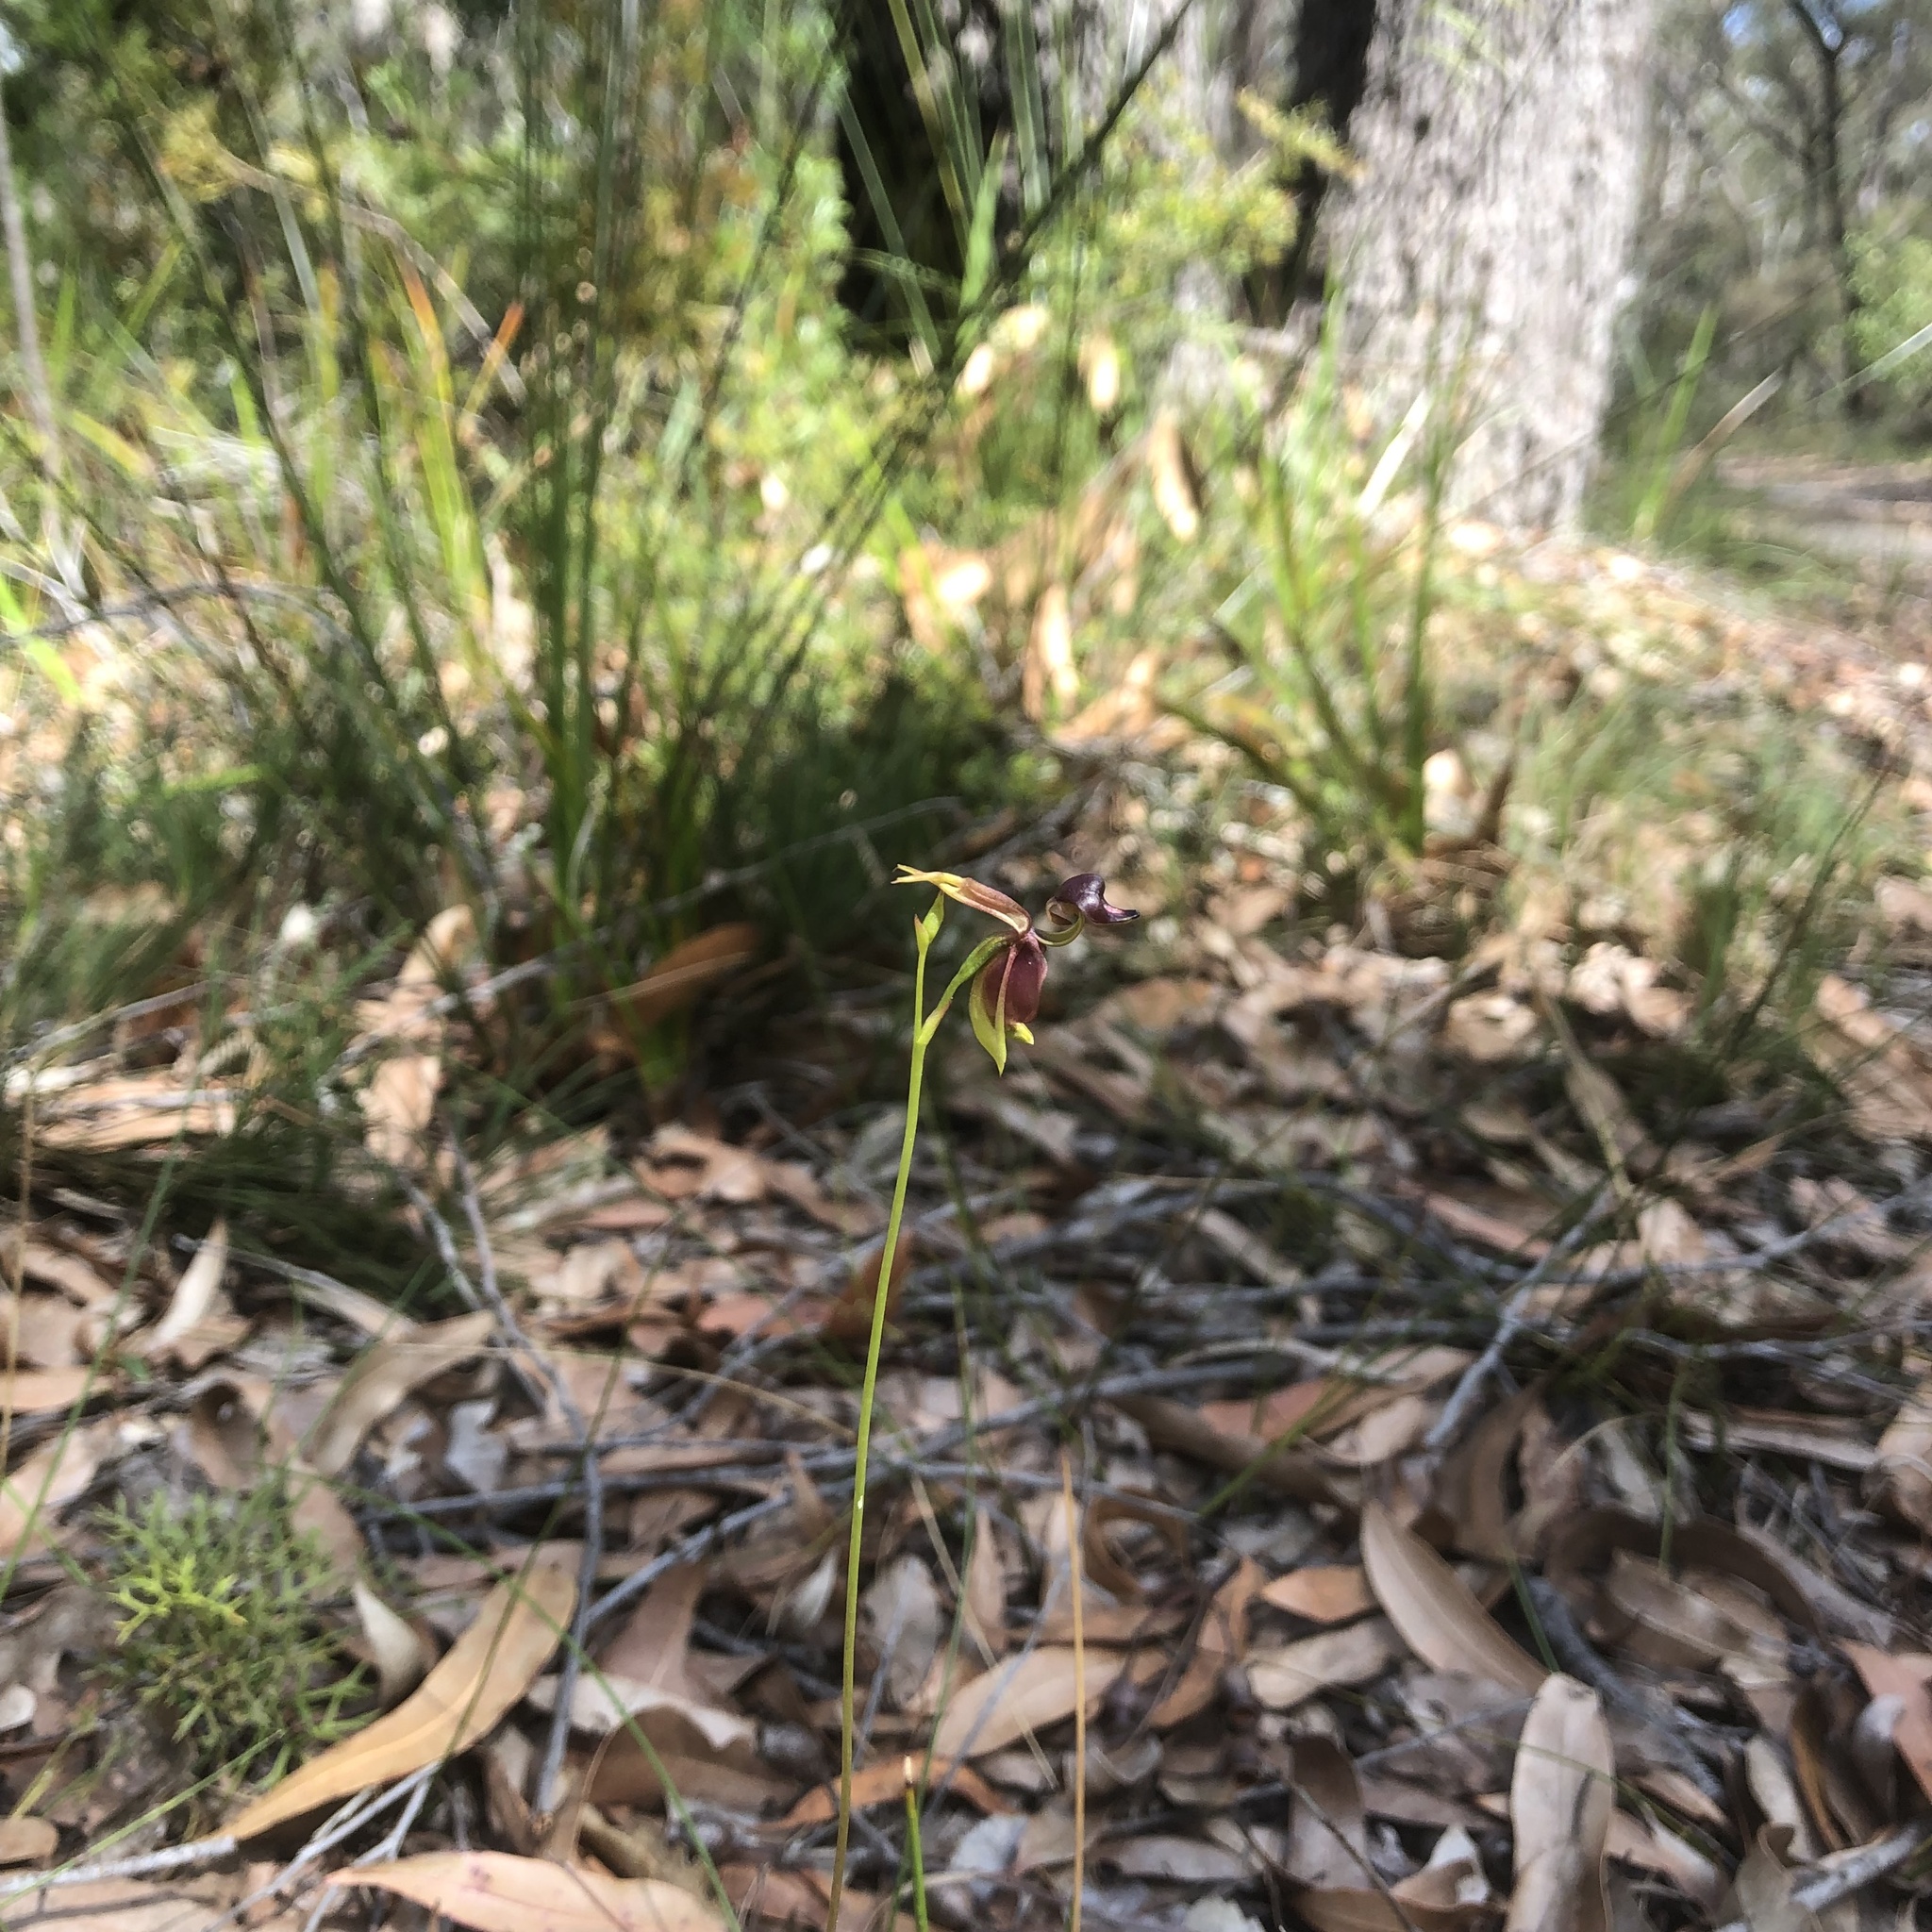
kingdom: Plantae
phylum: Tracheophyta
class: Liliopsida
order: Asparagales
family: Orchidaceae
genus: Caleana
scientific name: Caleana major
